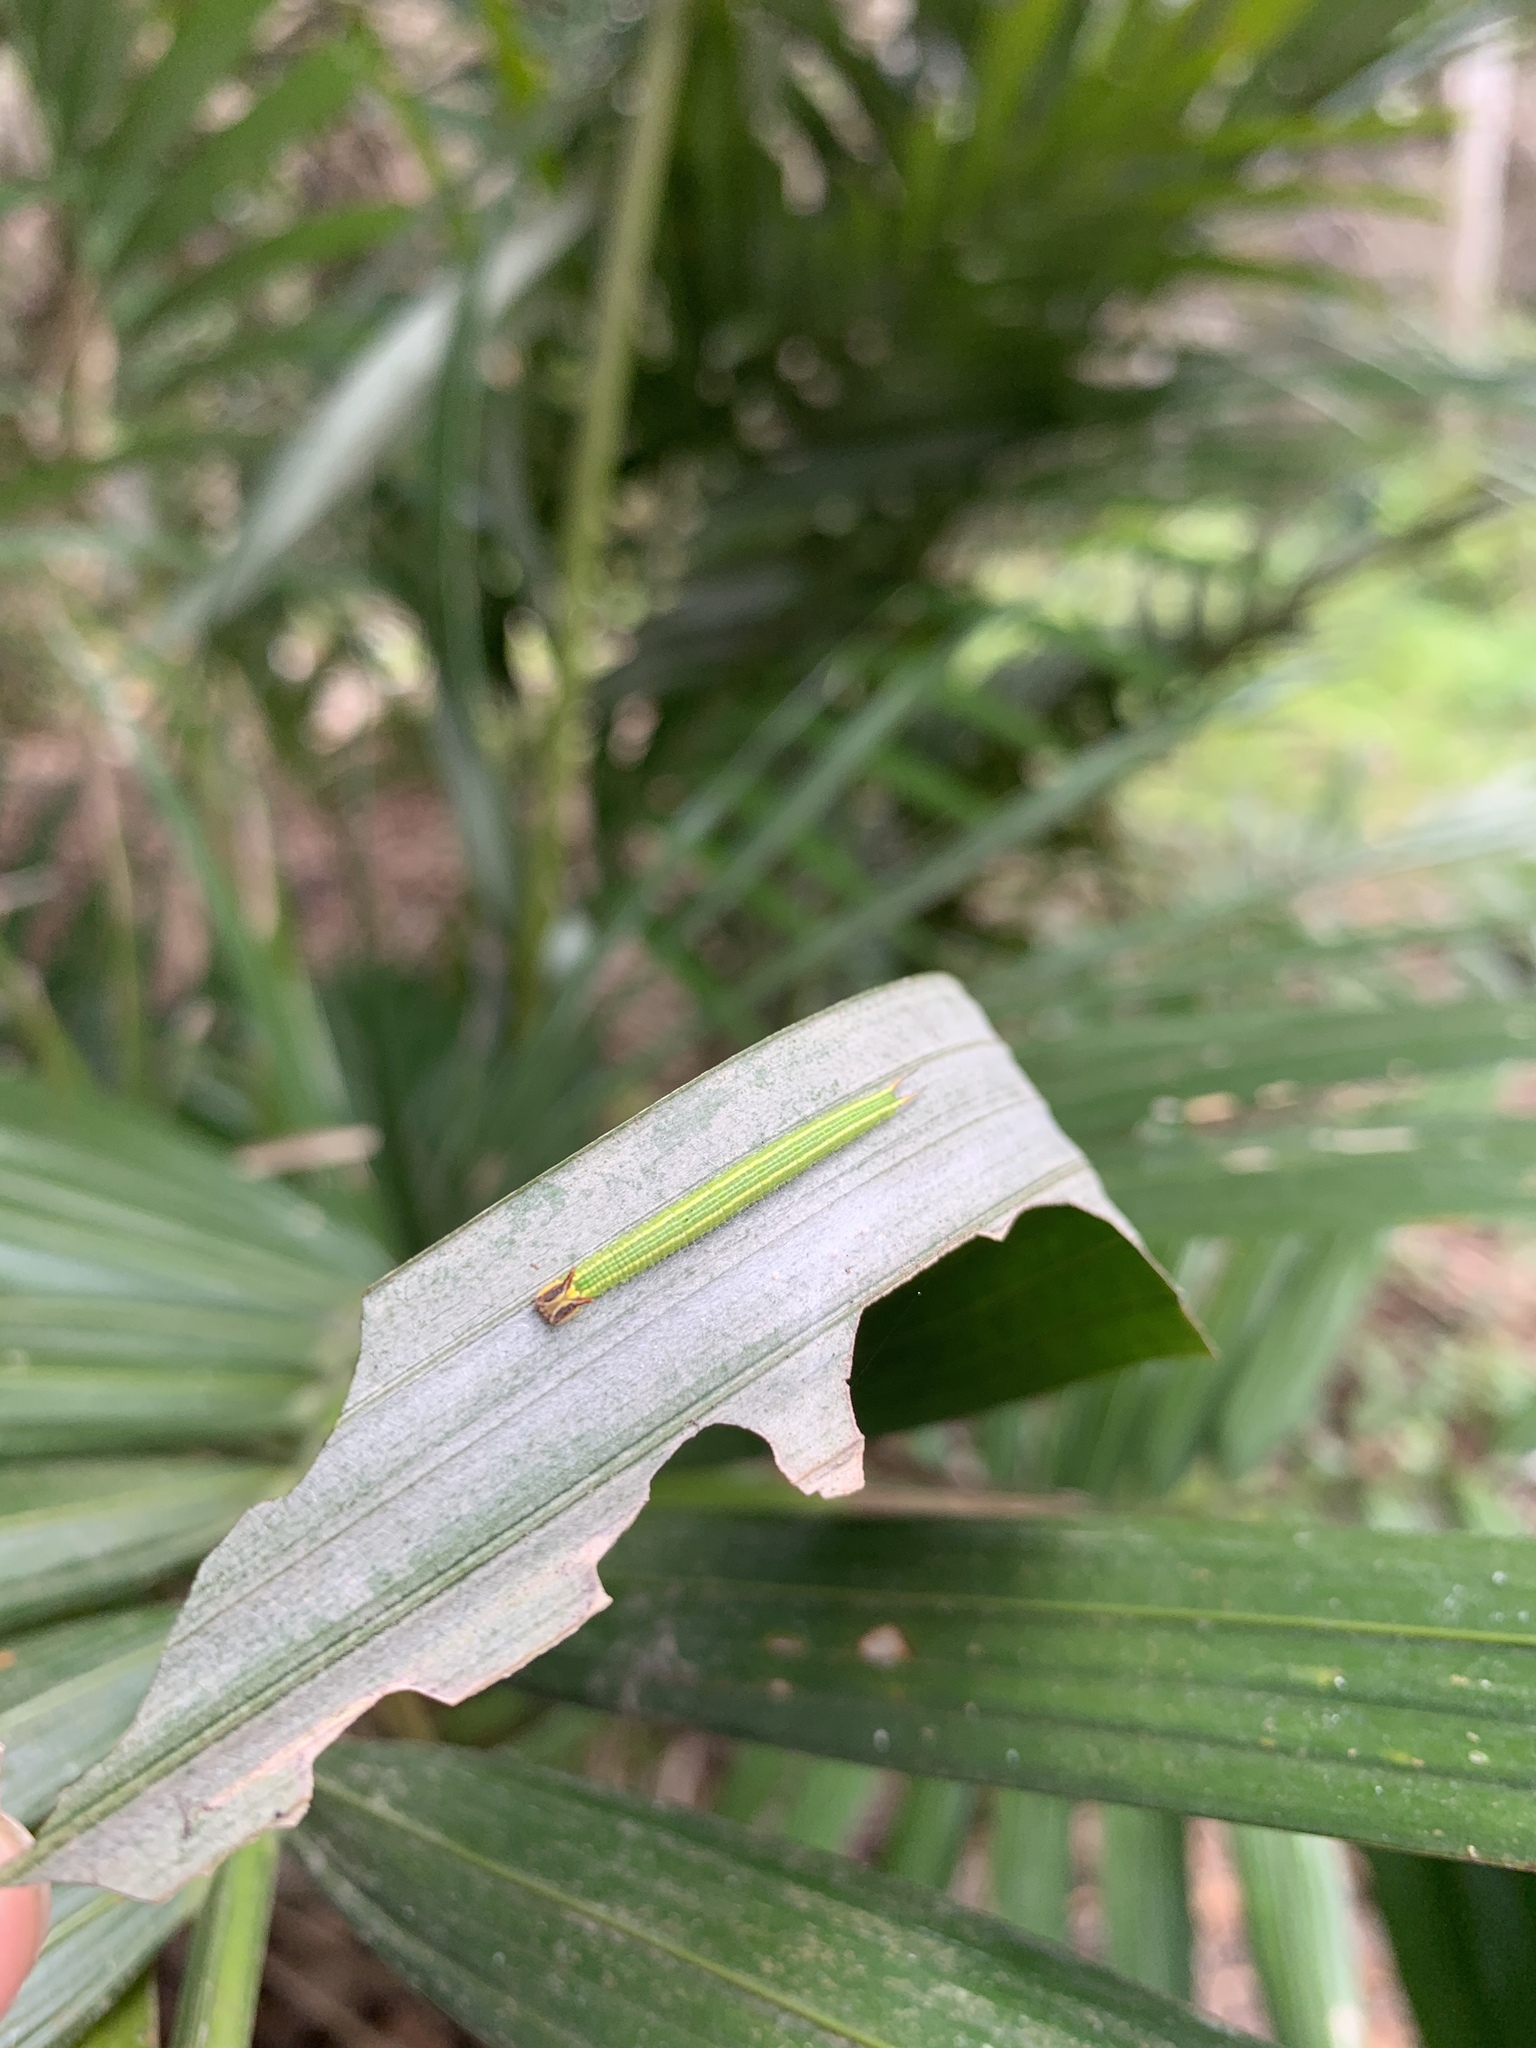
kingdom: Animalia
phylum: Arthropoda
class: Insecta
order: Lepidoptera
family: Nymphalidae
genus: Elymnias
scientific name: Elymnias hypermnestra
